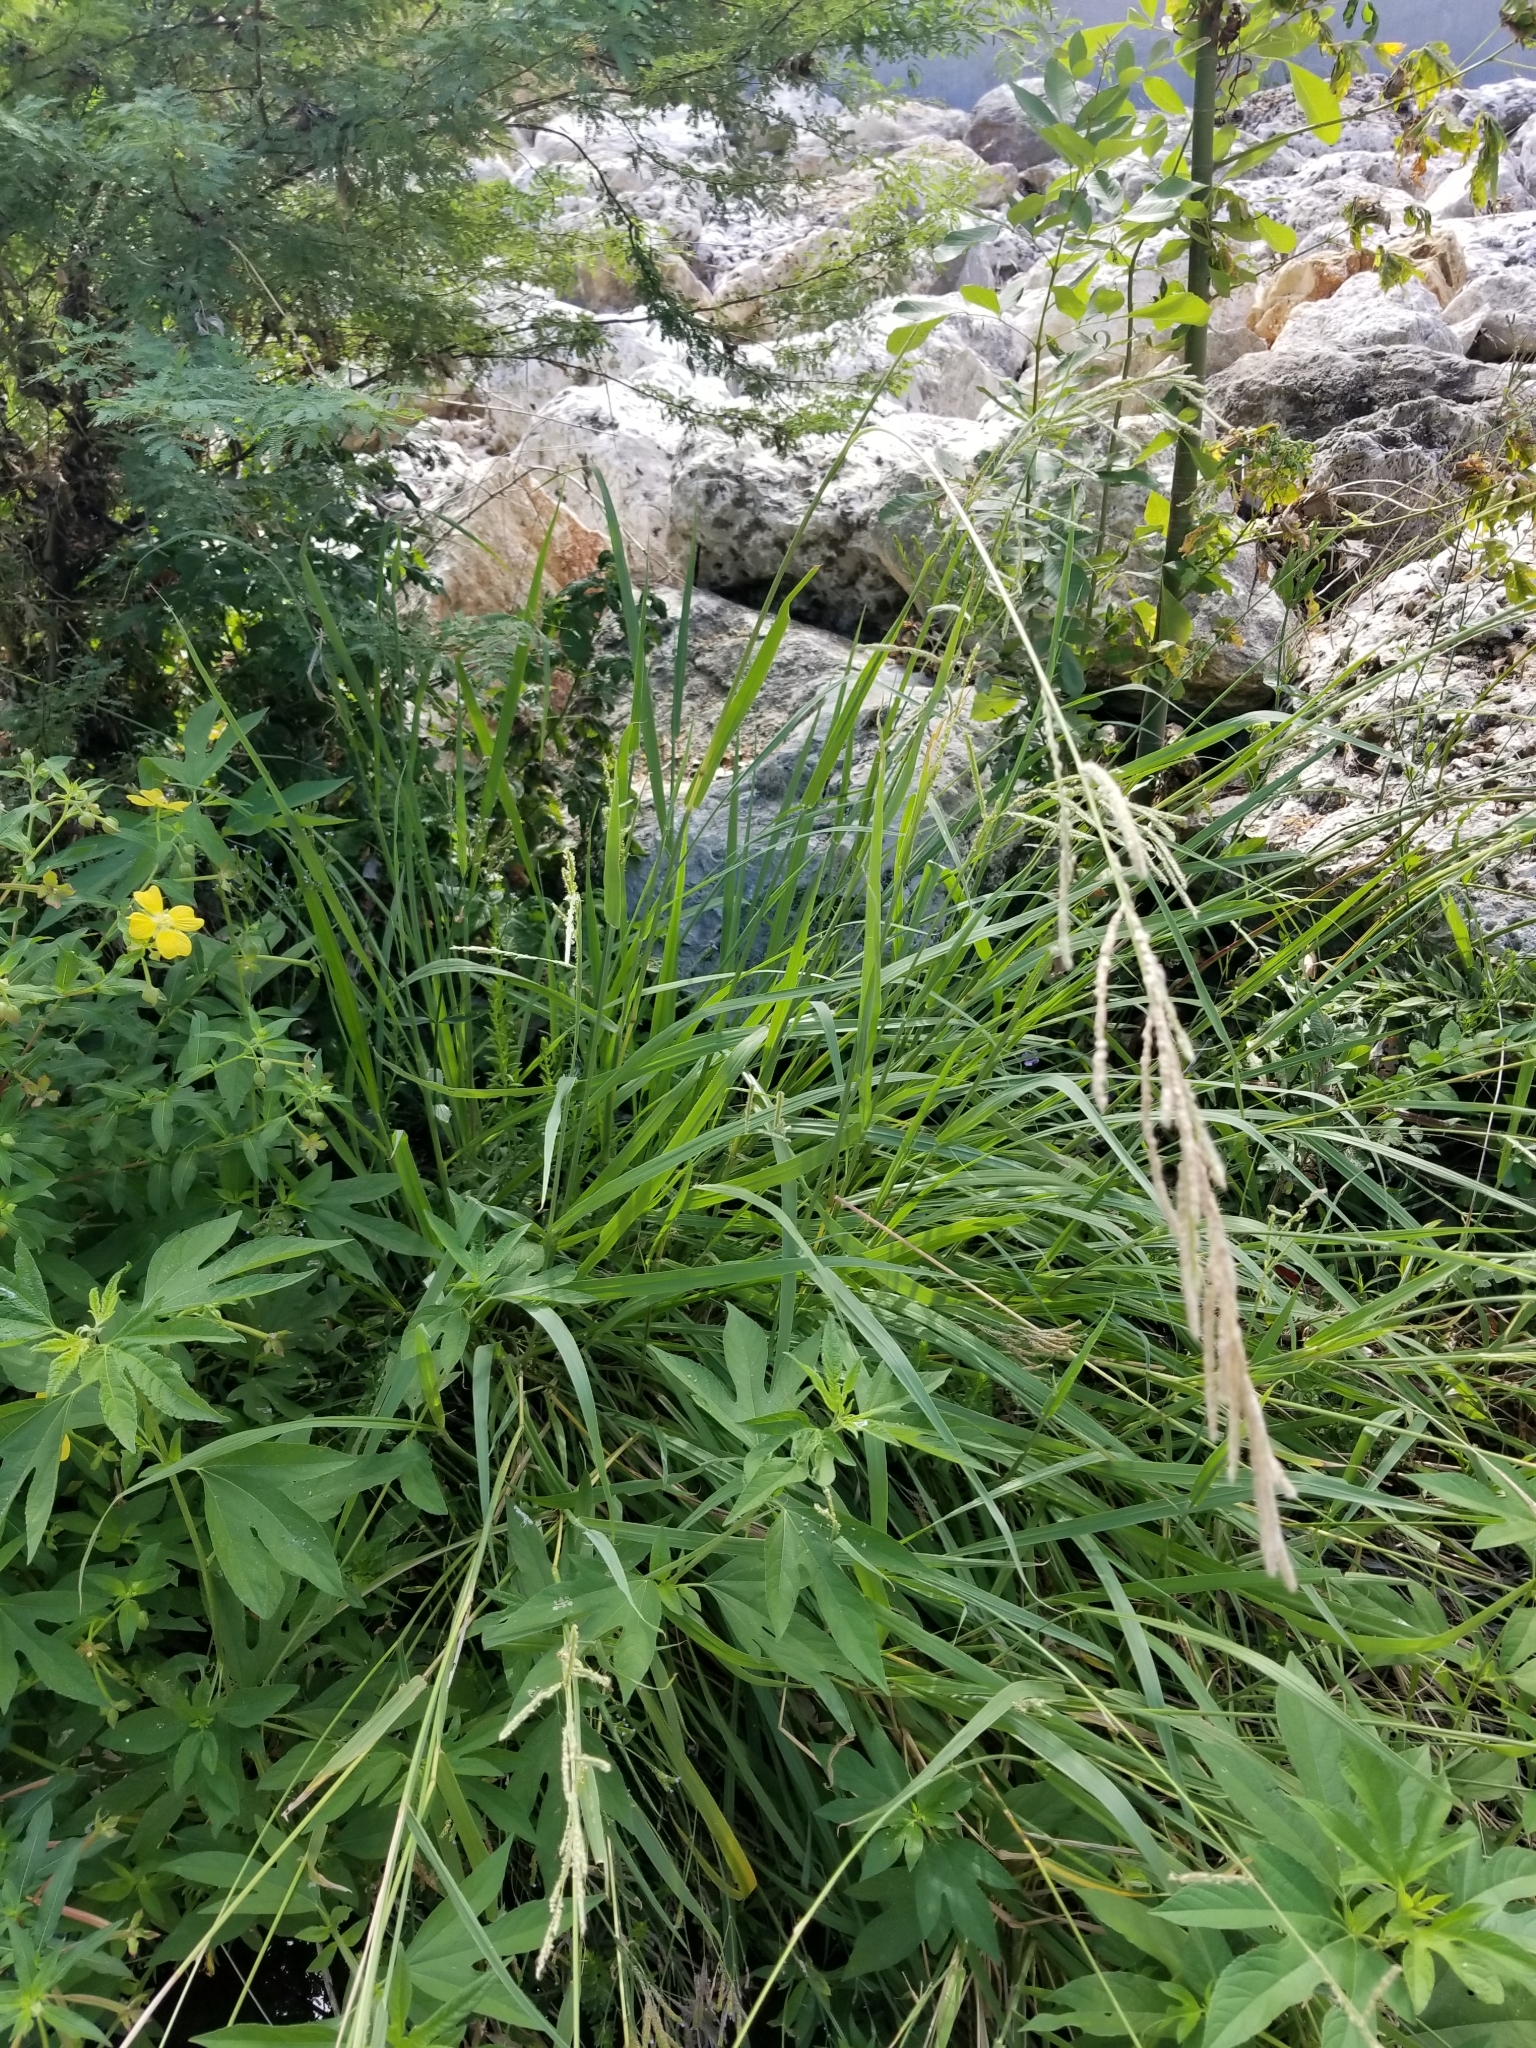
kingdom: Plantae
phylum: Tracheophyta
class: Liliopsida
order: Poales
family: Poaceae
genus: Paspalum
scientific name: Paspalum urvillei
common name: Vasey's grass
